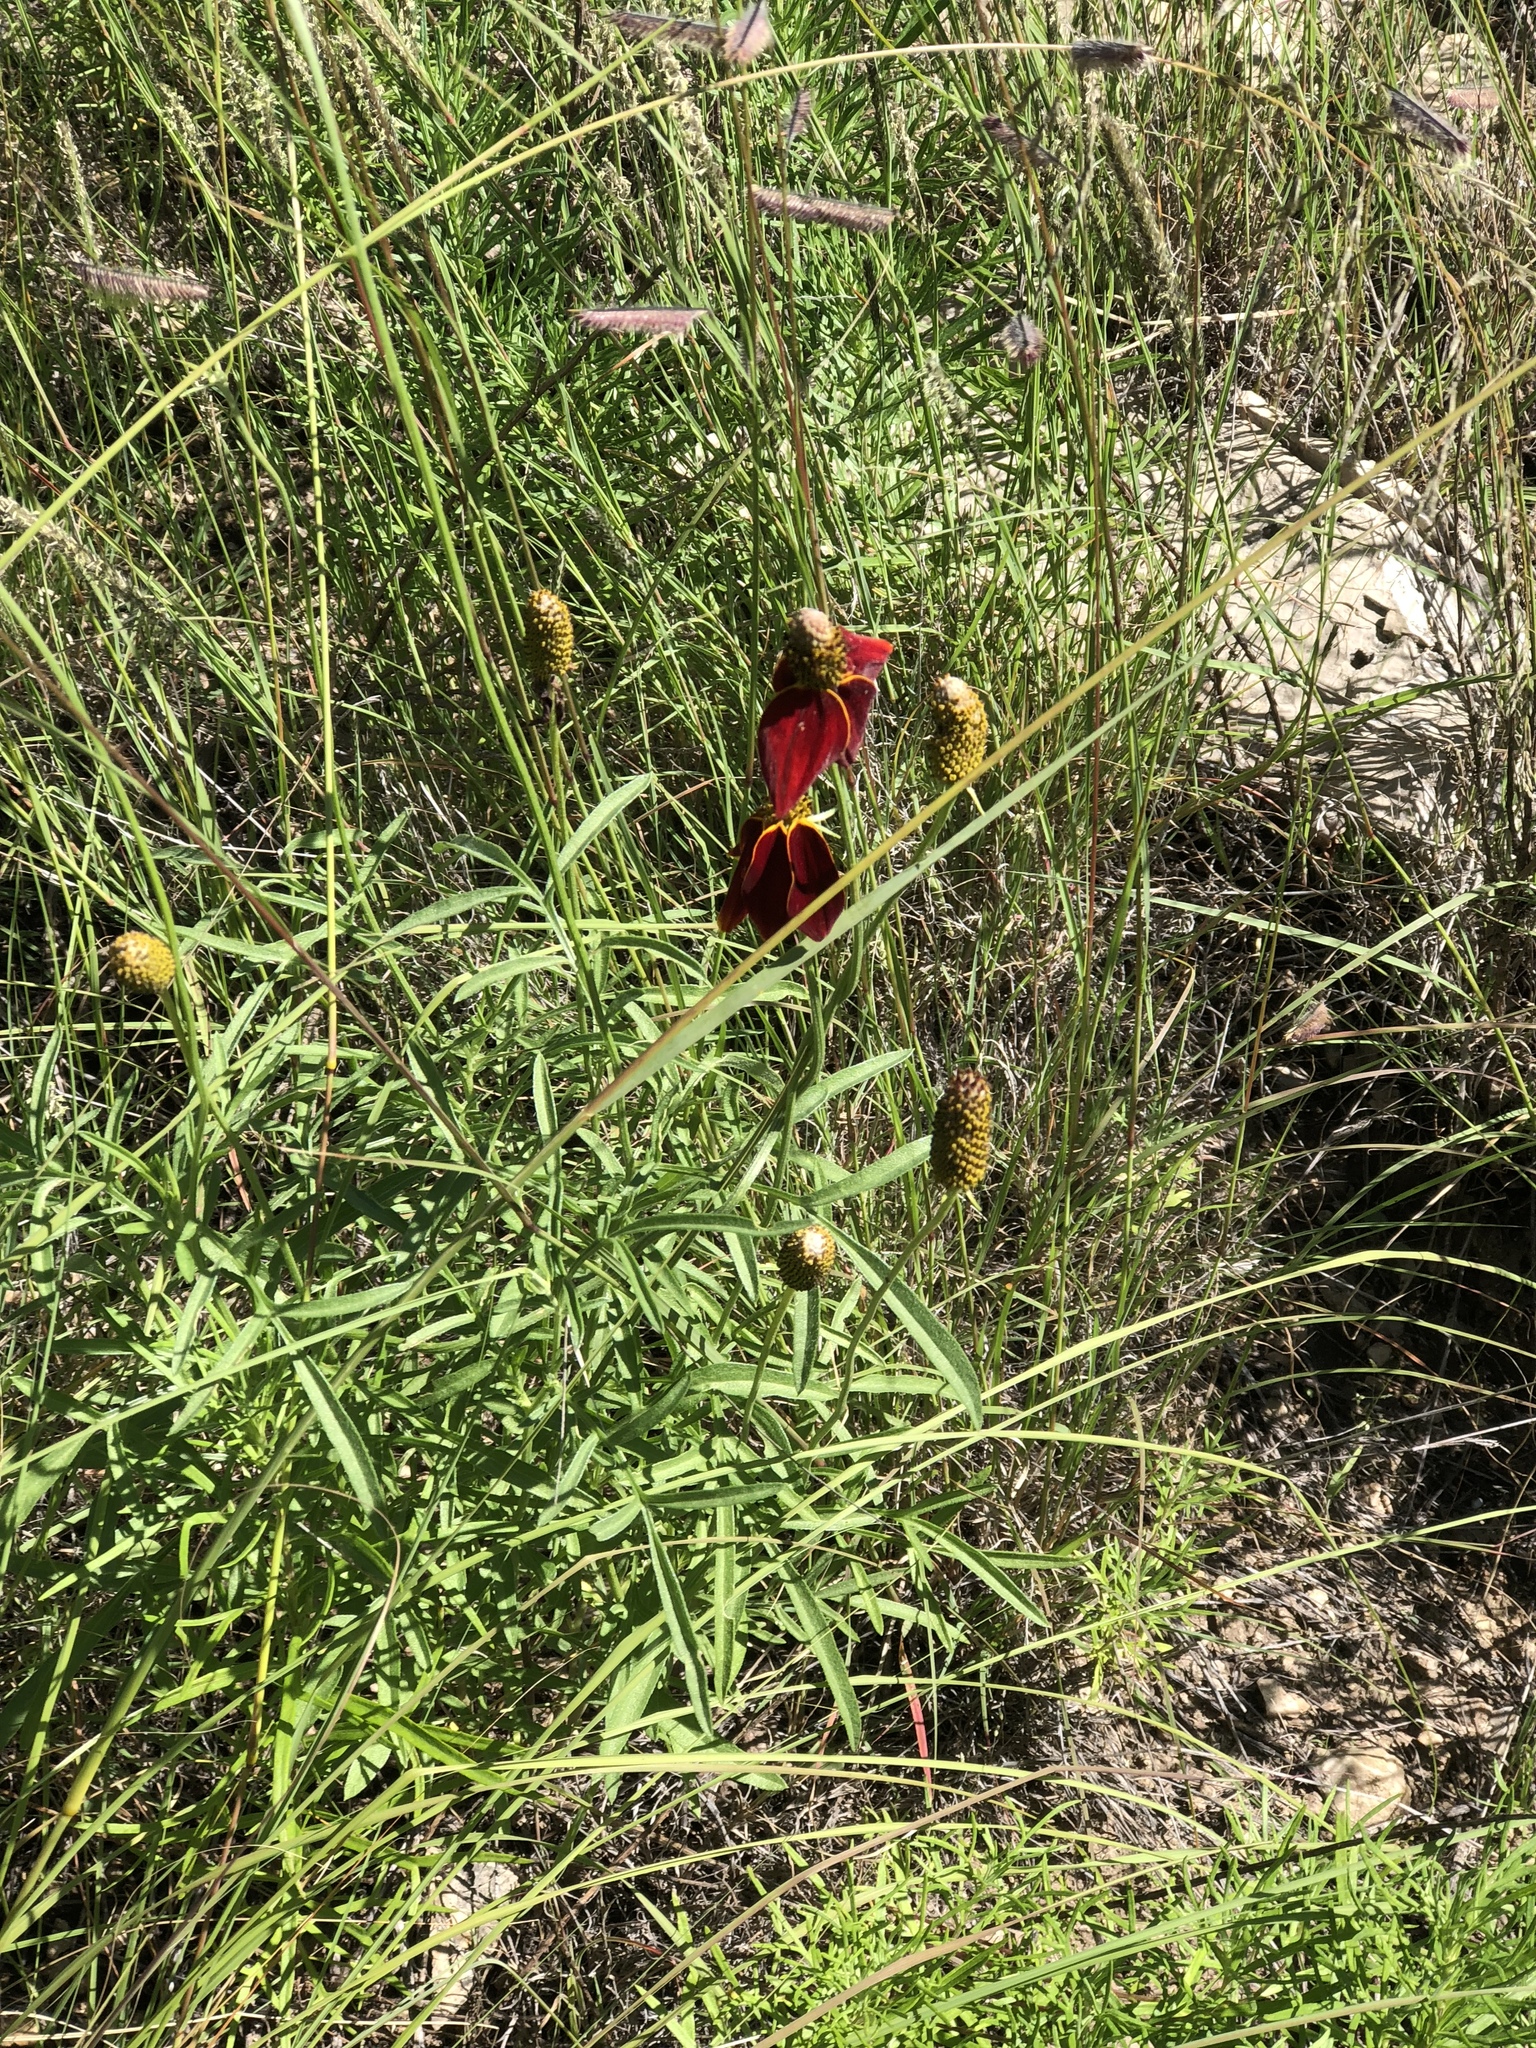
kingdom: Plantae
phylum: Tracheophyta
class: Magnoliopsida
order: Asterales
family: Asteraceae
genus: Ratibida
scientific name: Ratibida columnifera
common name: Prairie coneflower
